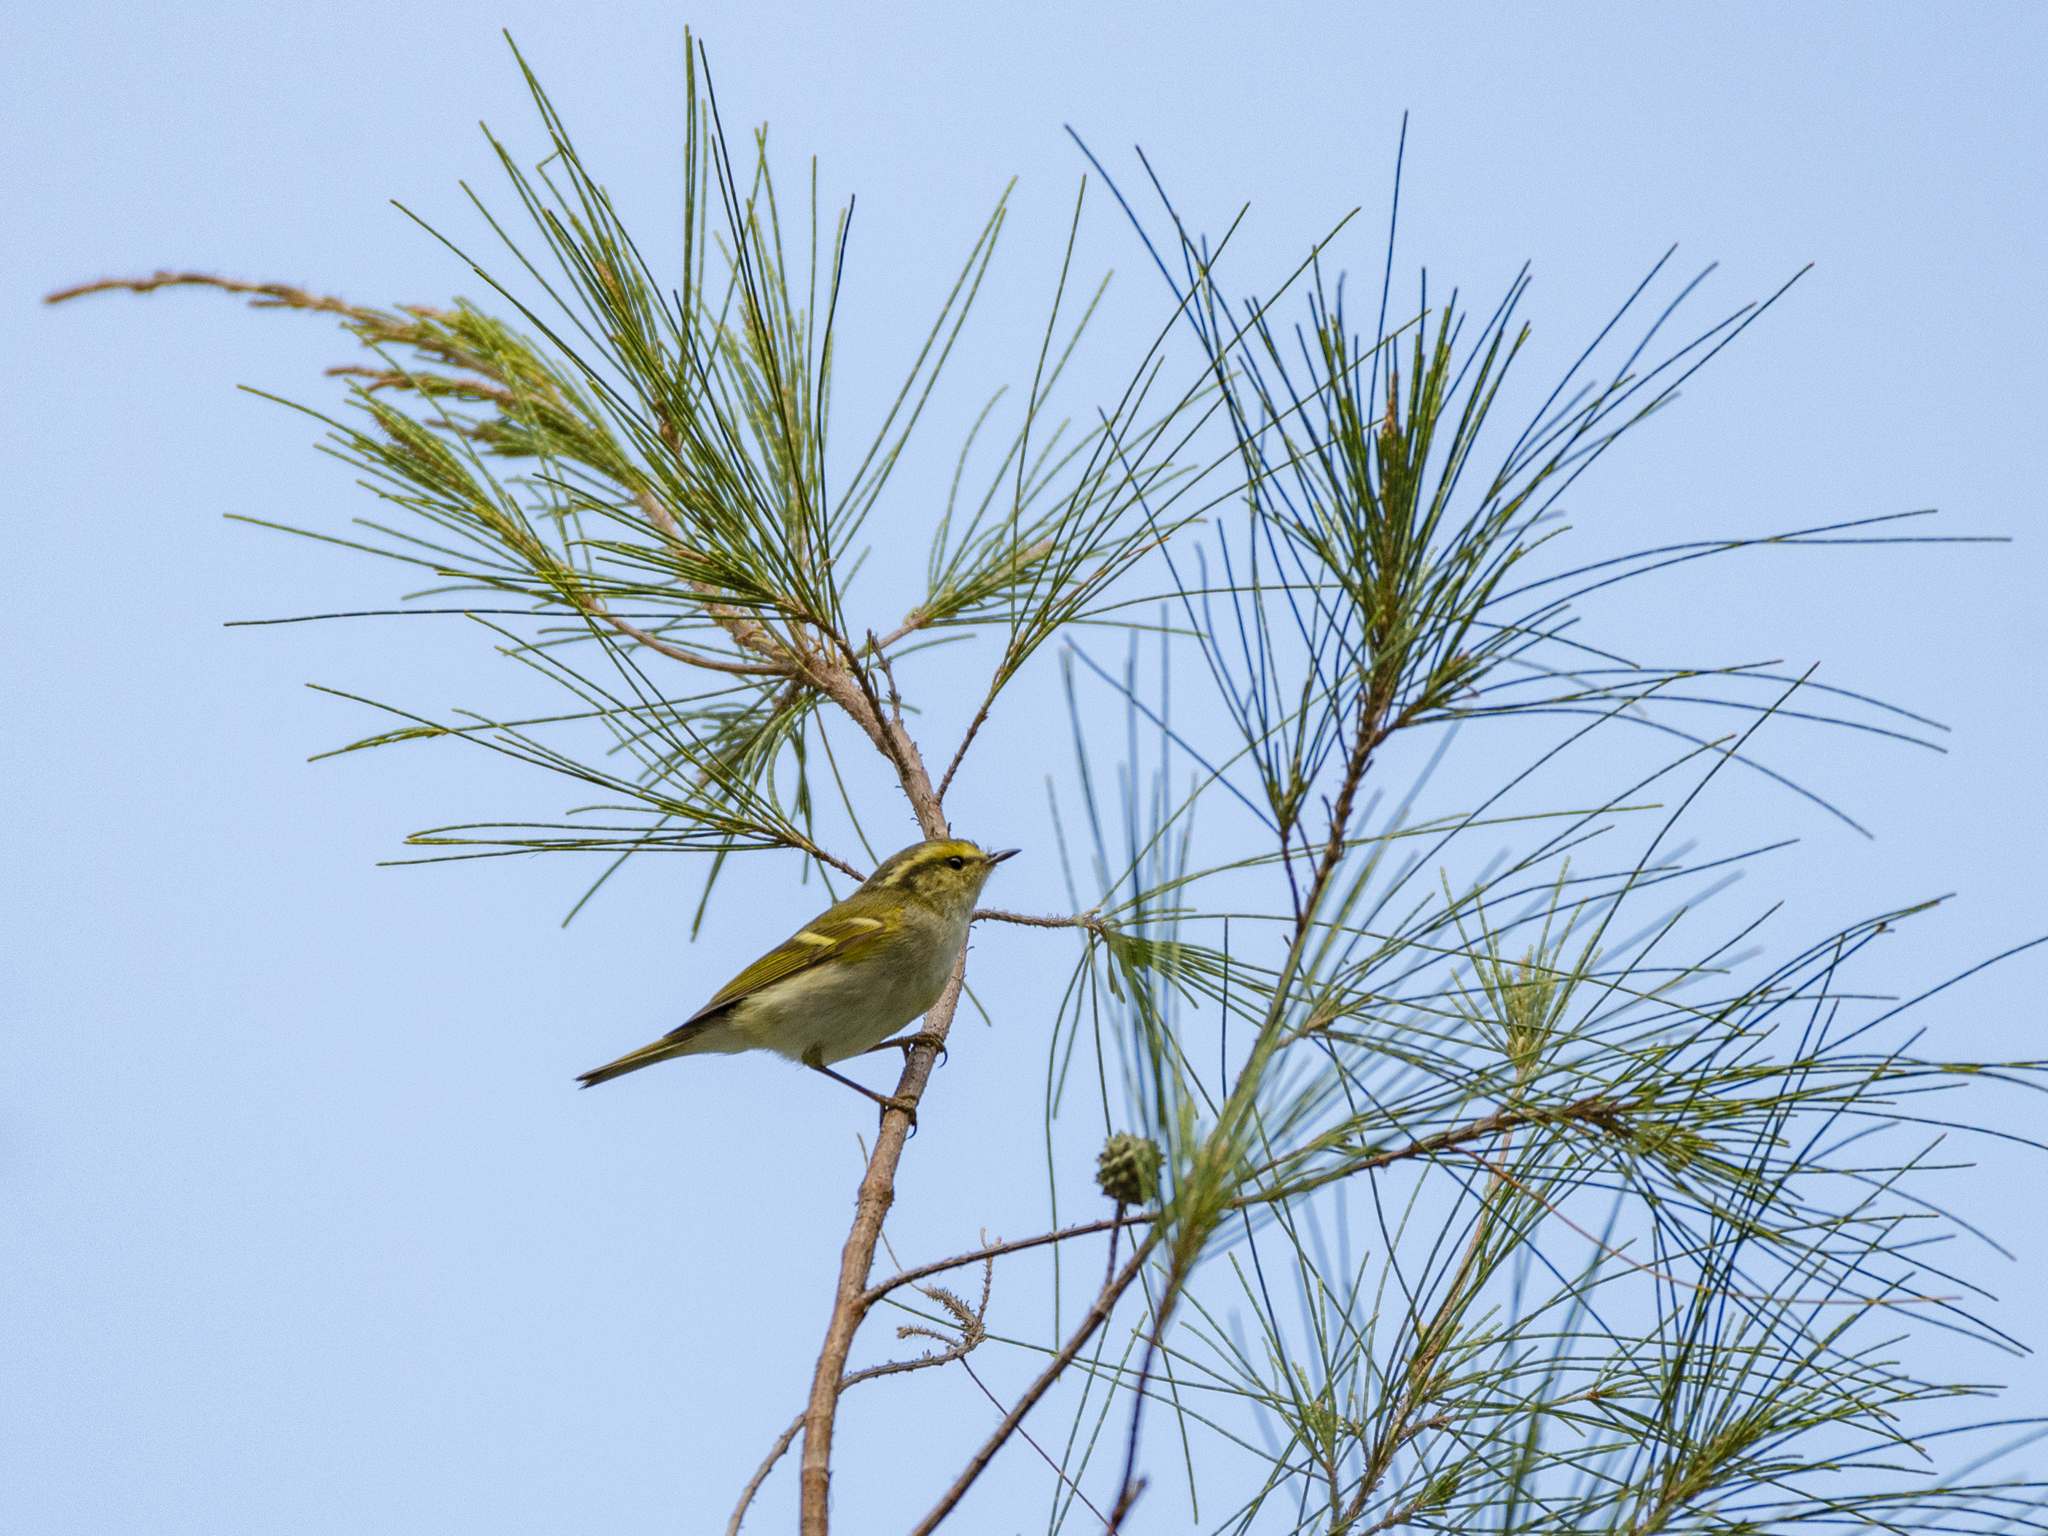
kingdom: Animalia
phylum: Chordata
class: Aves
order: Passeriformes
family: Phylloscopidae
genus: Phylloscopus
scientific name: Phylloscopus proregulus
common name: Pallas's leaf warbler
